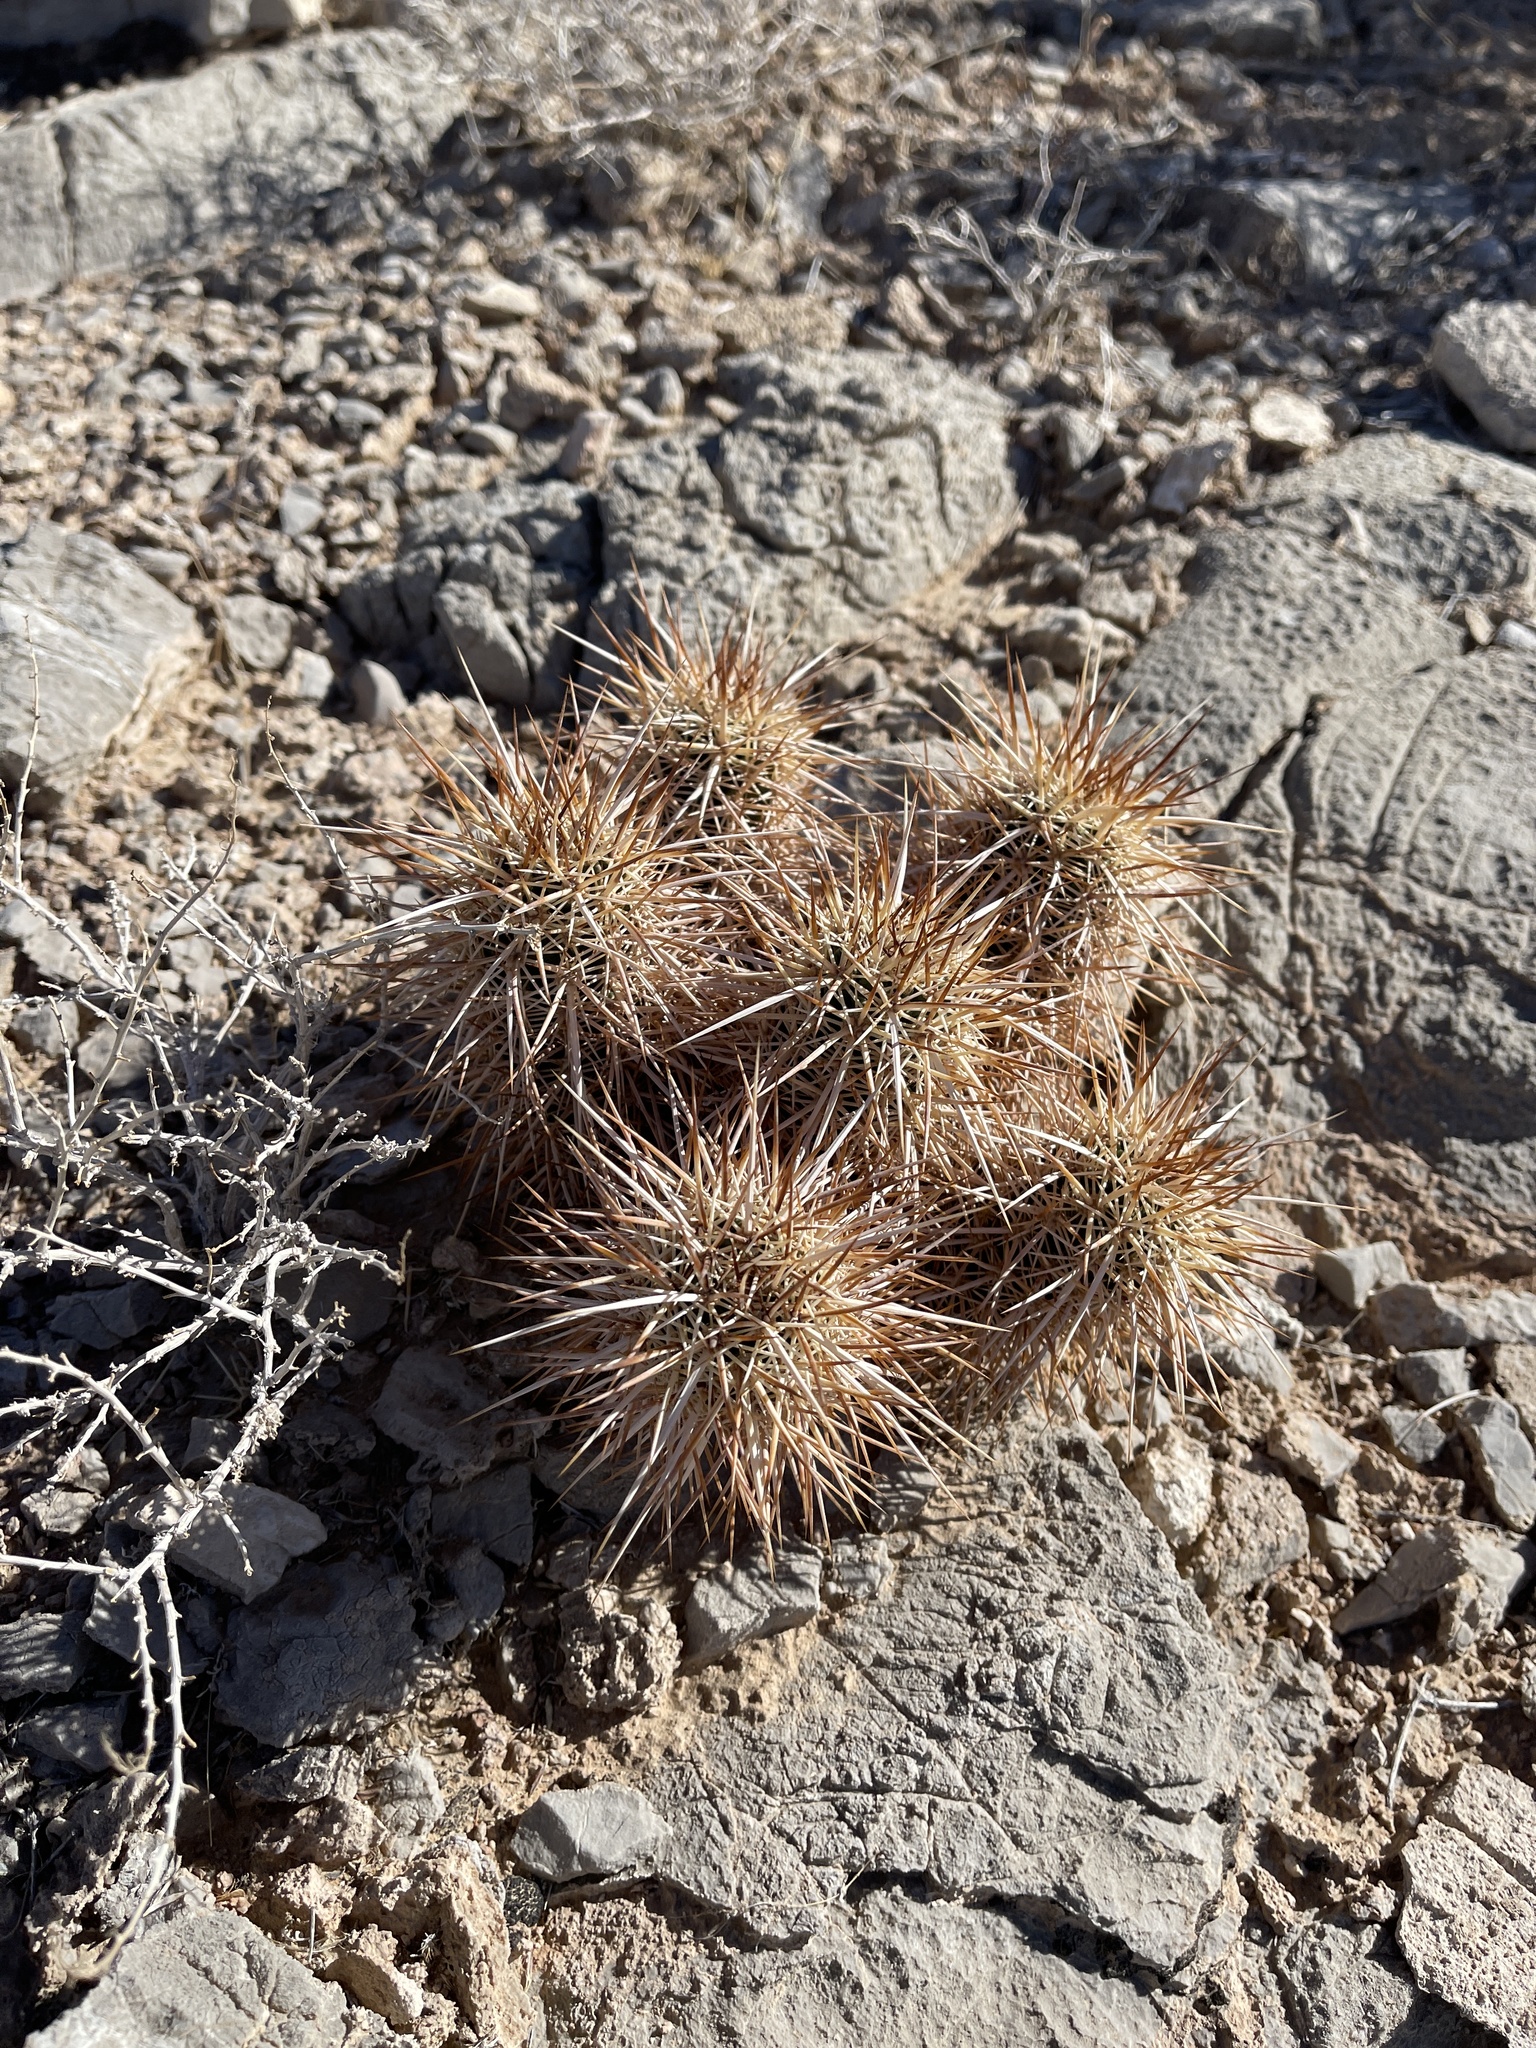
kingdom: Plantae
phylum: Tracheophyta
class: Magnoliopsida
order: Caryophyllales
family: Cactaceae
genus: Echinocereus
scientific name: Echinocereus engelmannii
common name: Engelmann's hedgehog cactus
